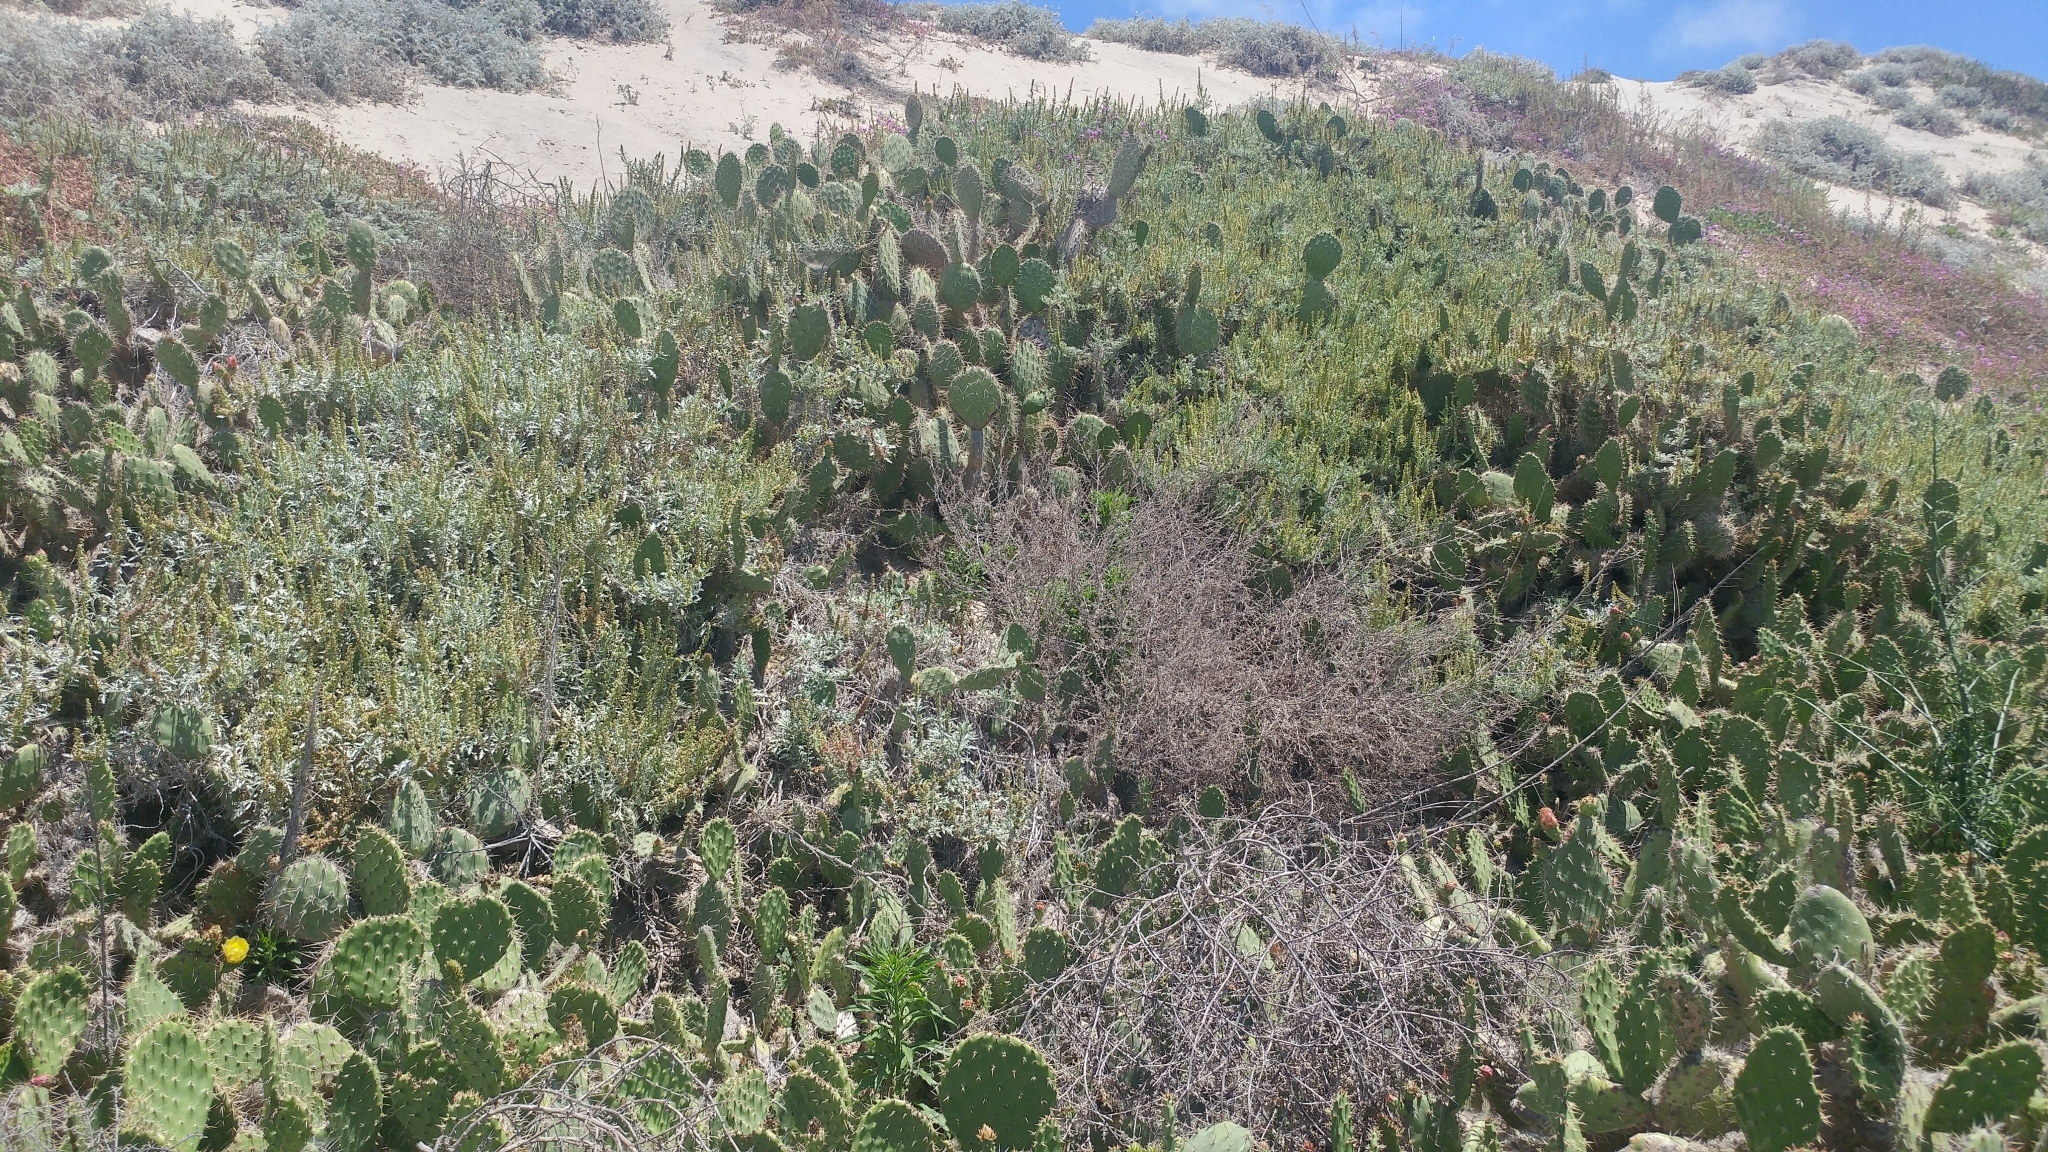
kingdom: Plantae
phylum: Tracheophyta
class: Magnoliopsida
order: Asterales
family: Asteraceae
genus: Ambrosia
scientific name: Ambrosia chamissonis
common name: Beachbur
